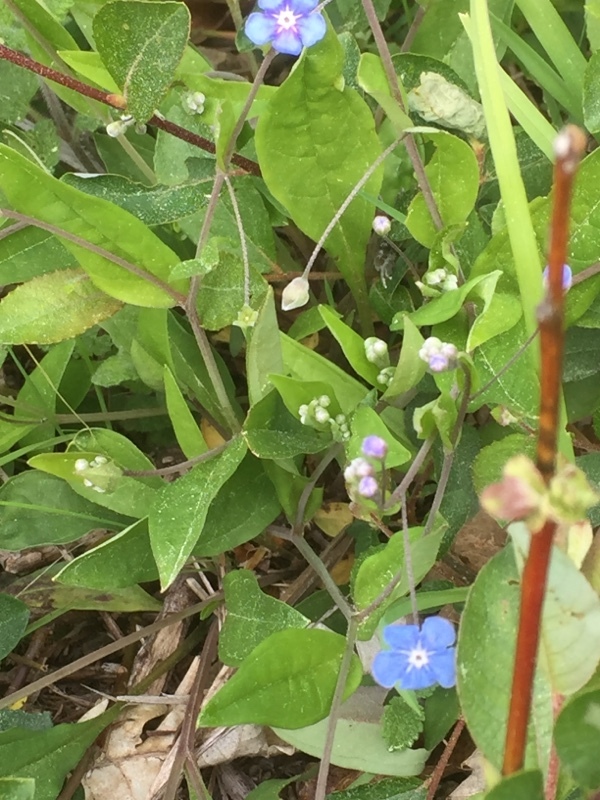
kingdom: Plantae
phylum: Tracheophyta
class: Magnoliopsida
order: Boraginales
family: Boraginaceae
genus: Omphalodes
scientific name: Omphalodes nitida
